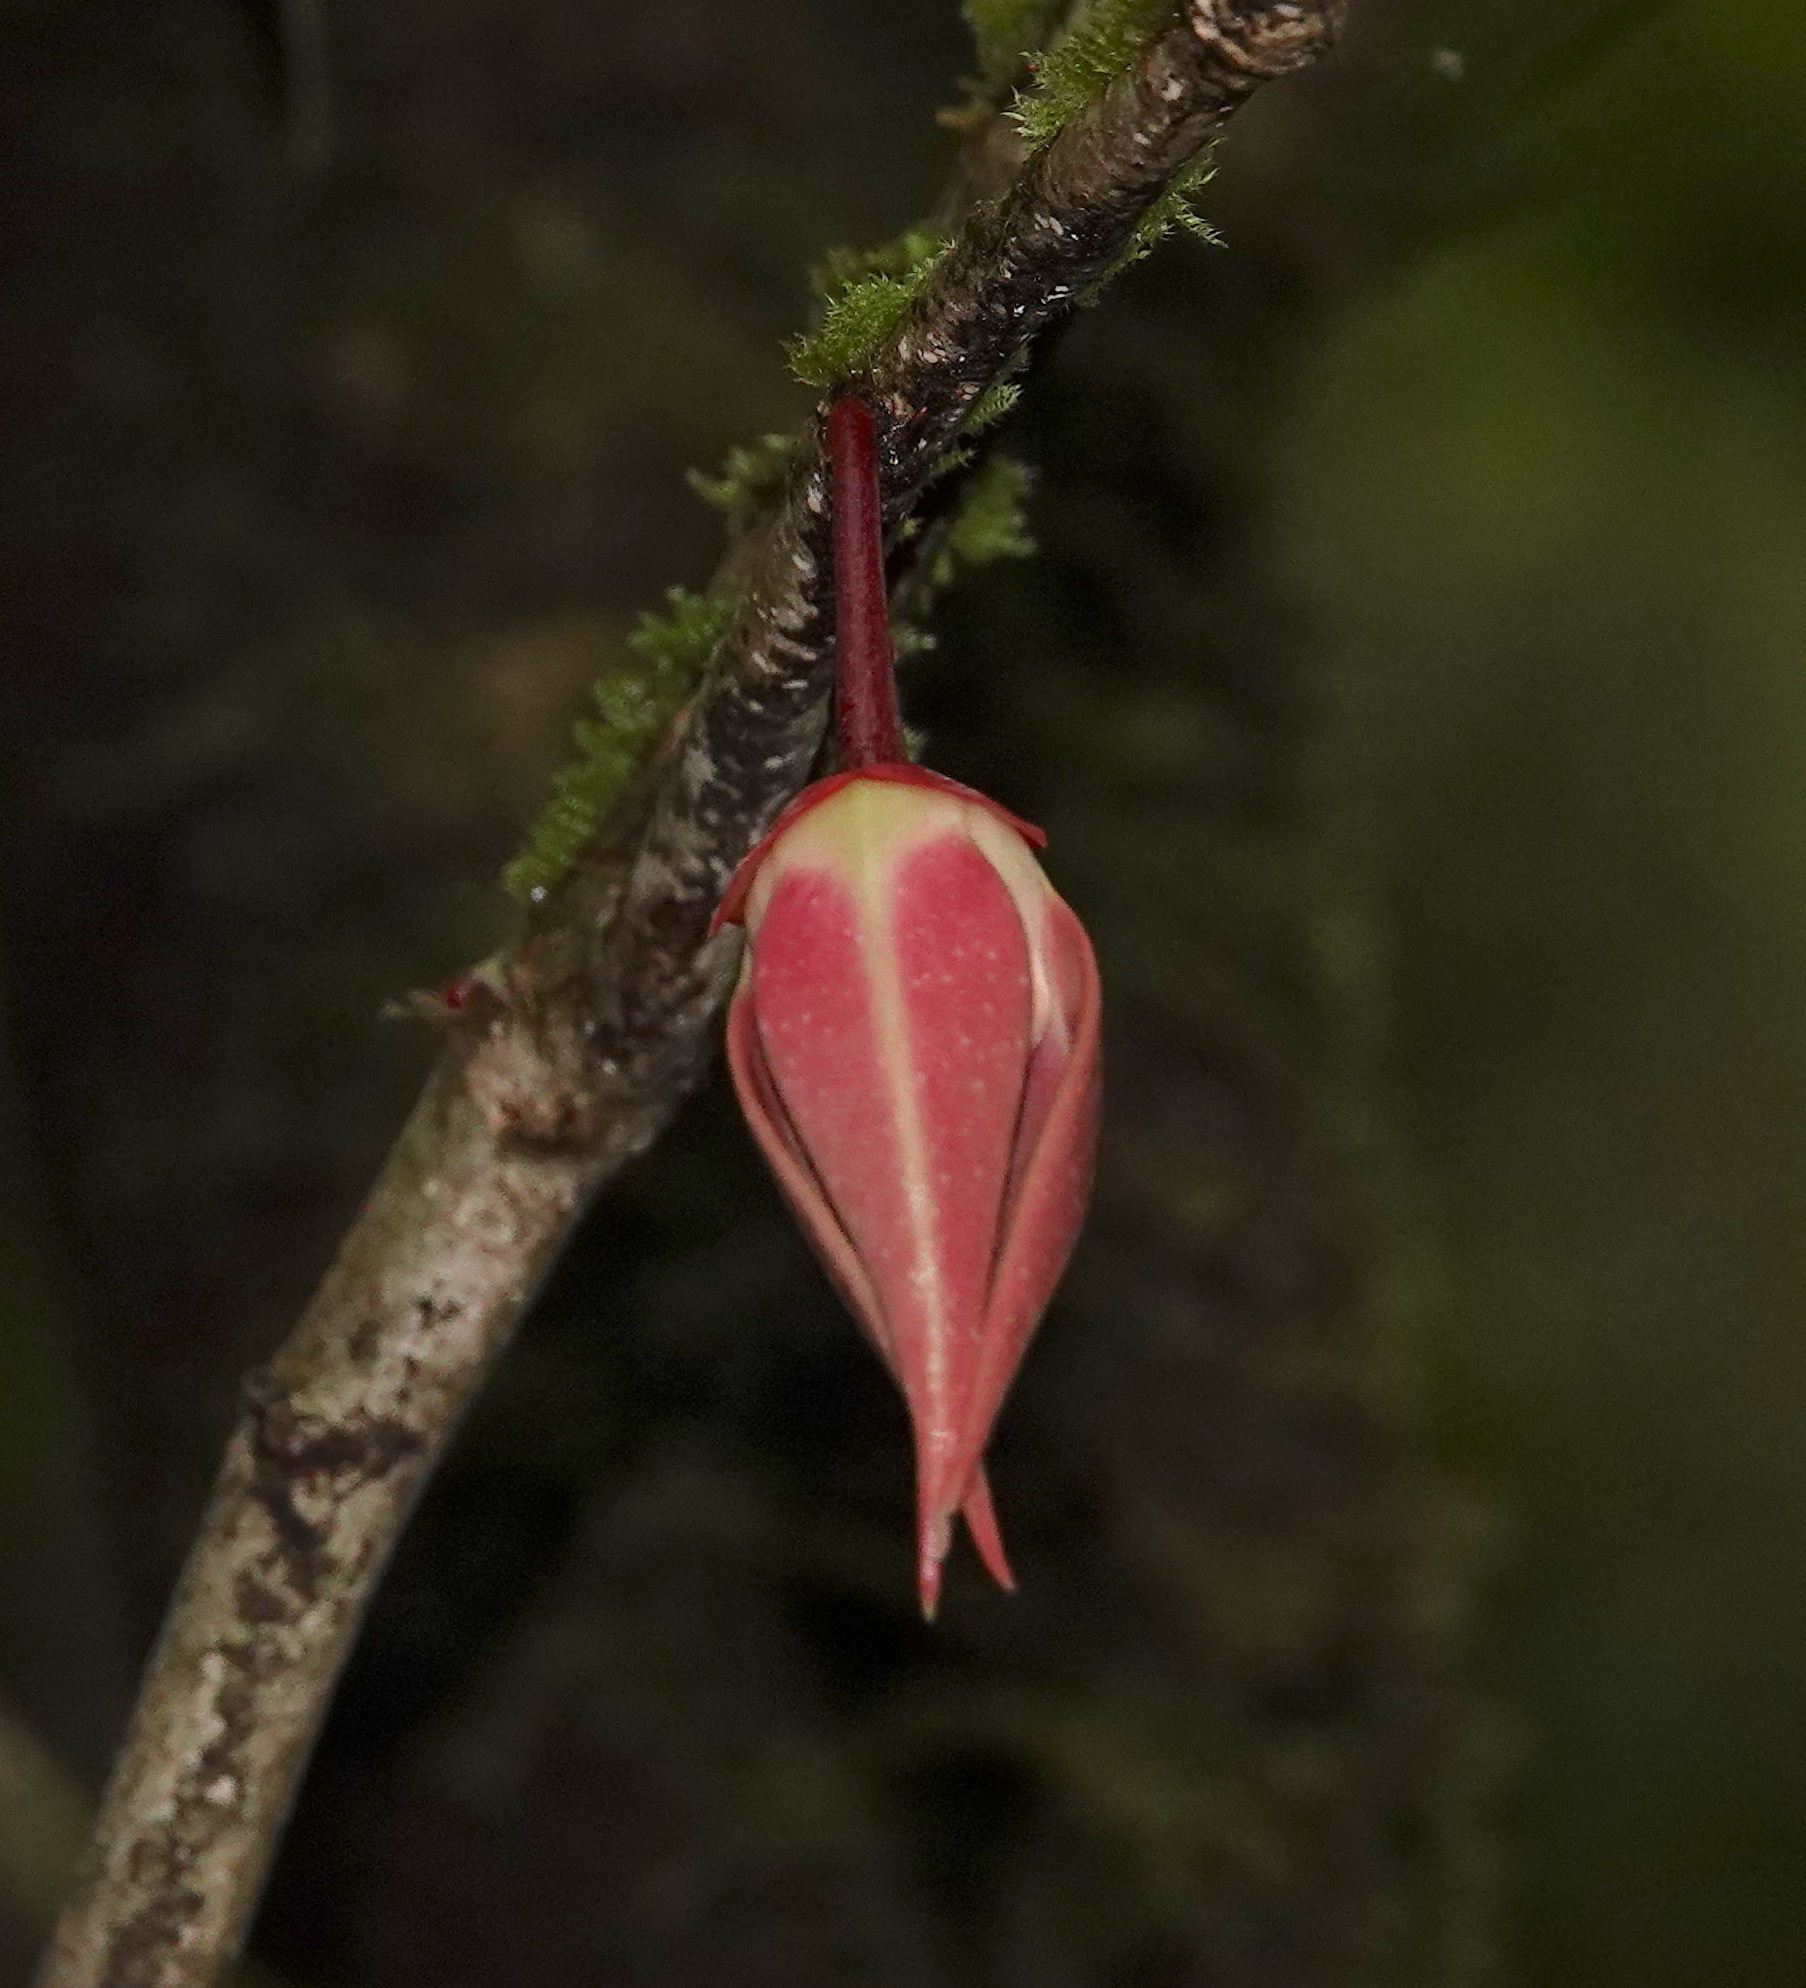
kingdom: Plantae
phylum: Tracheophyta
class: Magnoliopsida
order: Magnoliales
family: Annonaceae
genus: Goniothalamus
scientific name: Goniothalamus roseus
